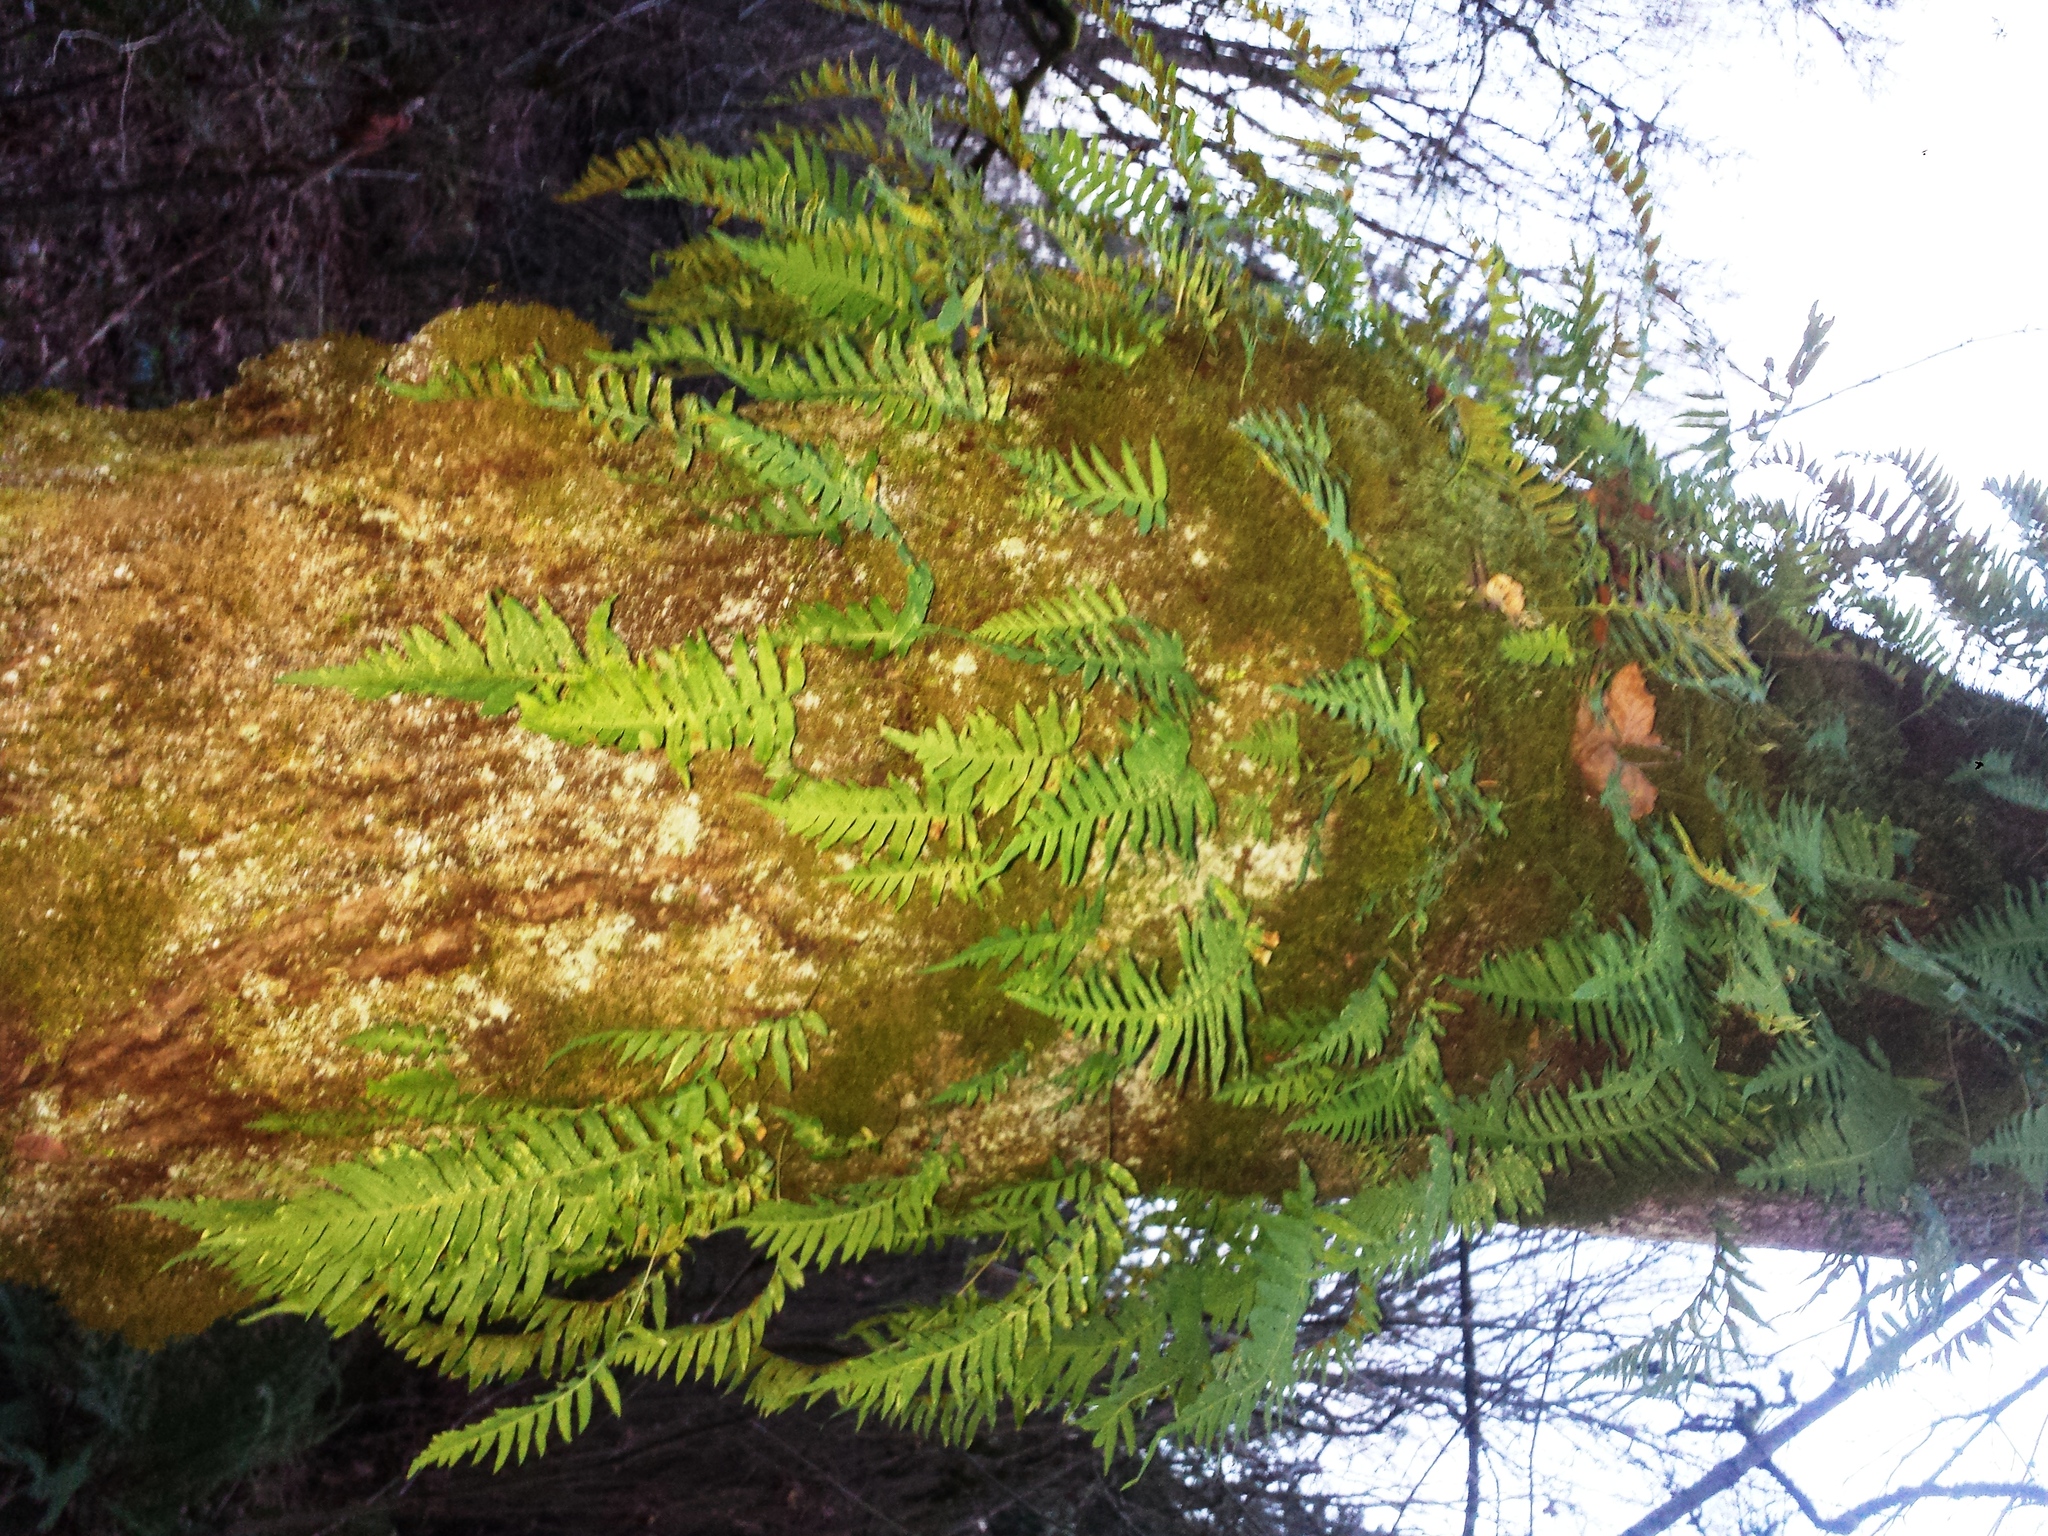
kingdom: Plantae
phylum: Tracheophyta
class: Magnoliopsida
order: Sapindales
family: Sapindaceae
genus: Acer
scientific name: Acer macrophyllum
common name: Oregon maple
